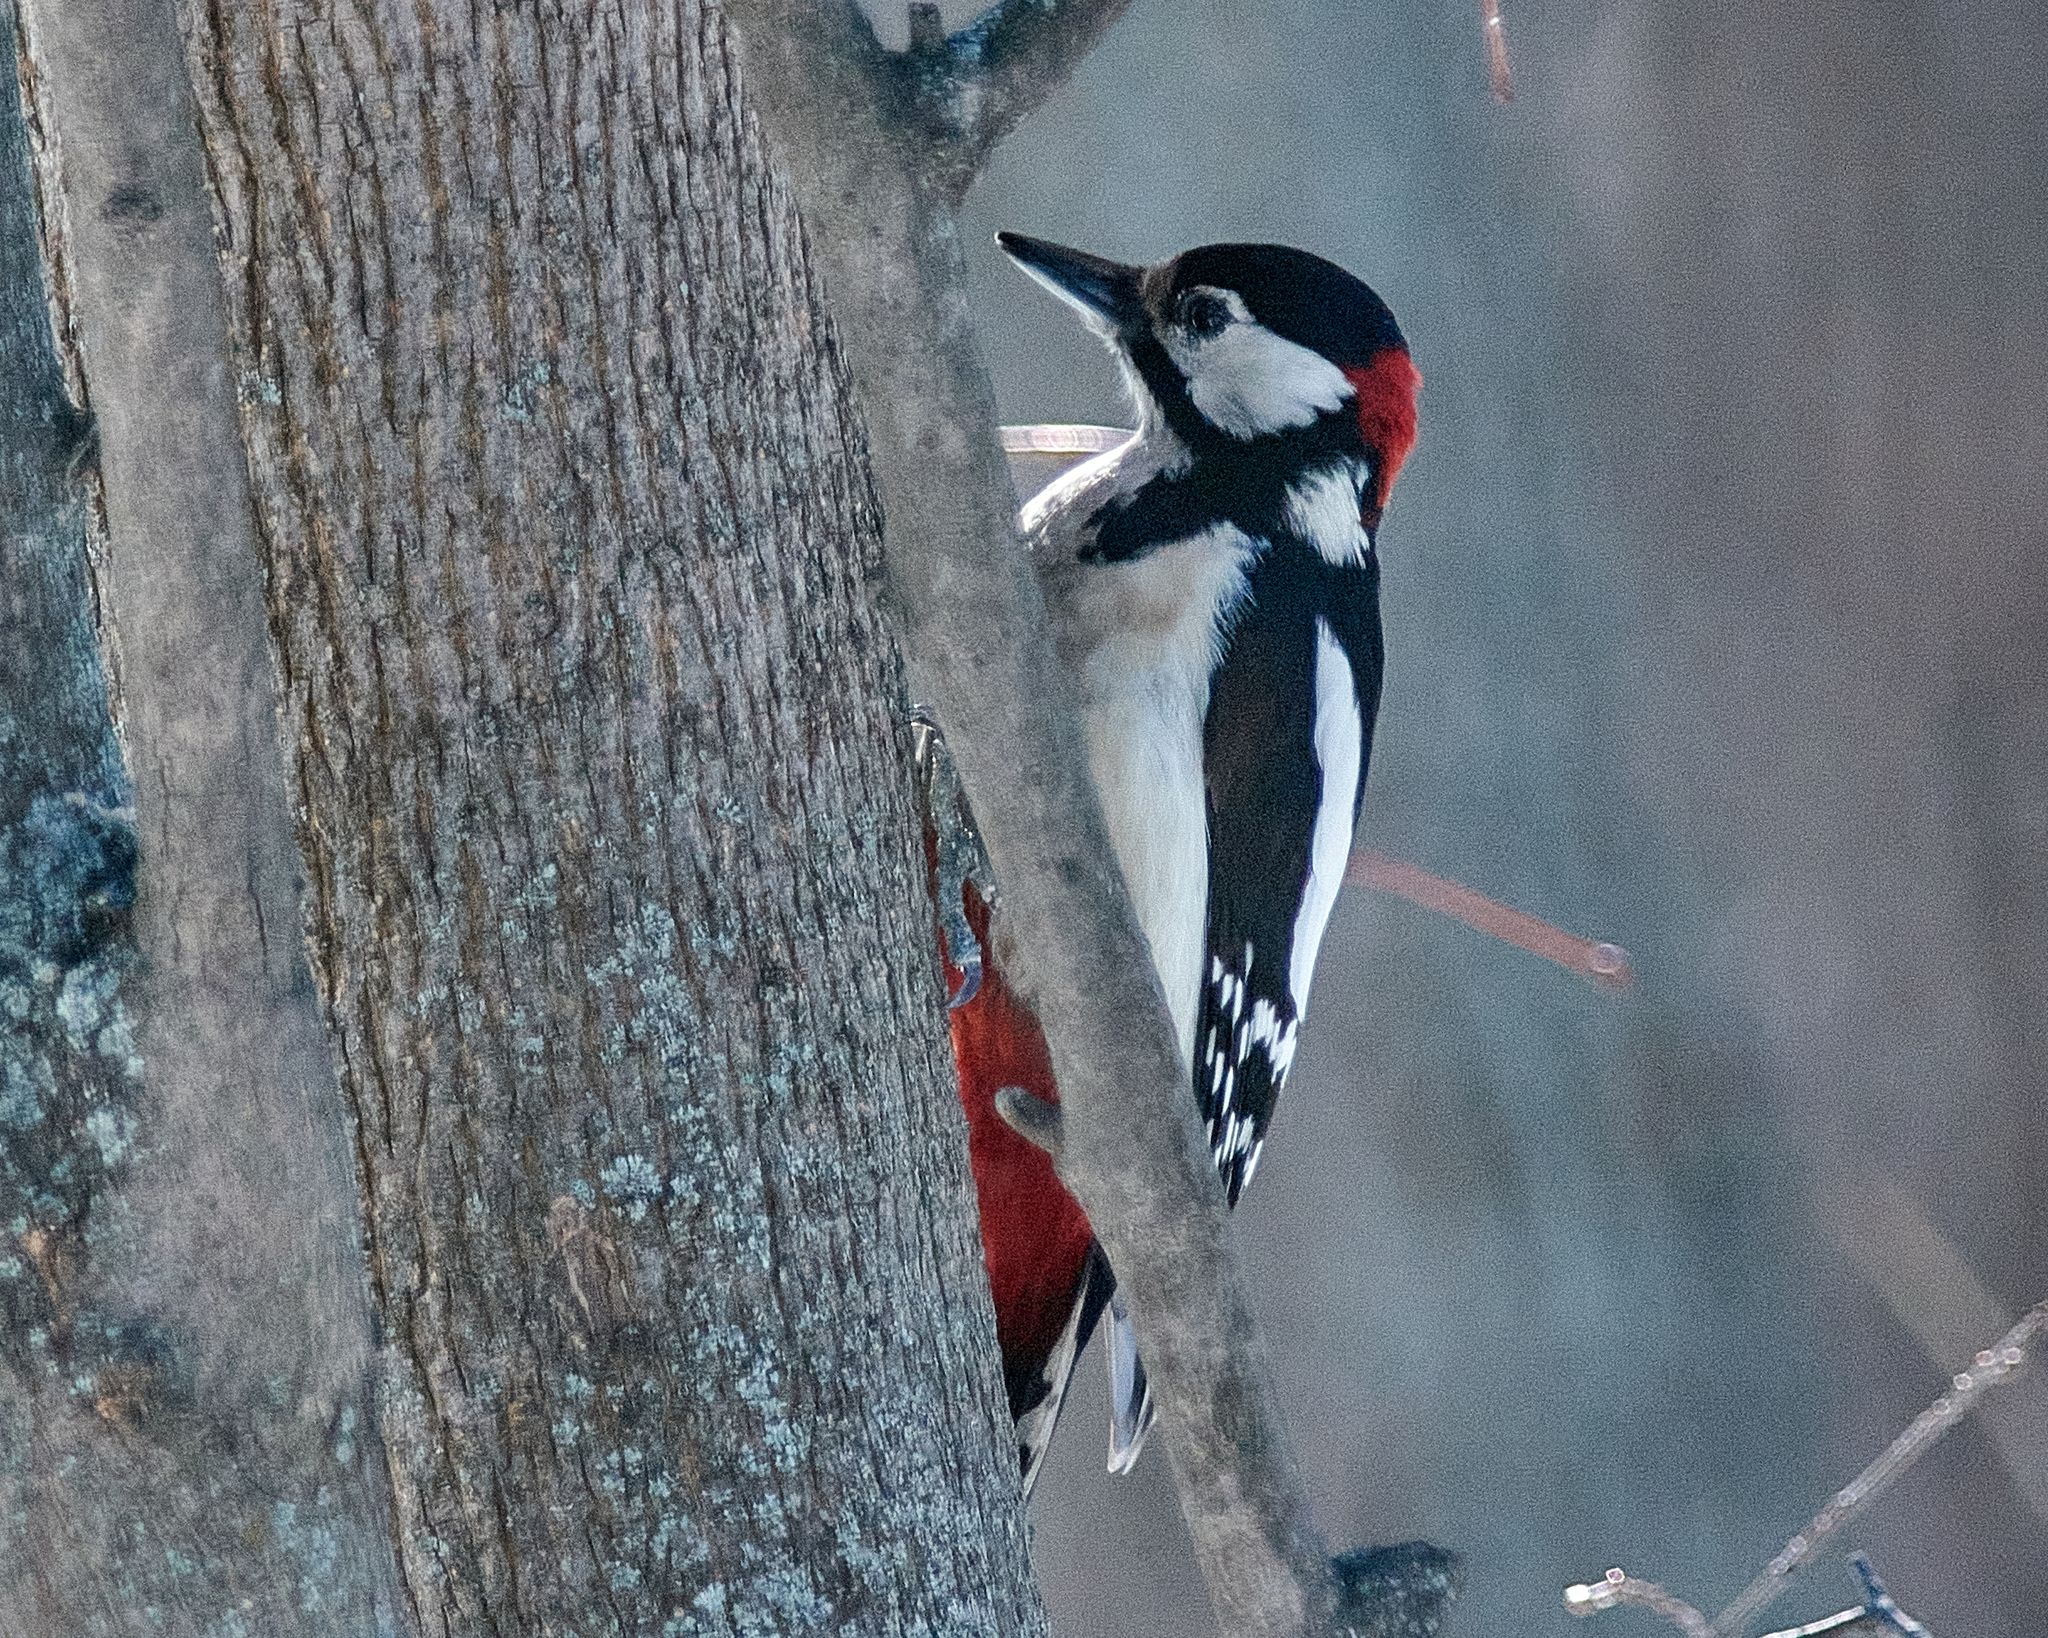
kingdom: Animalia
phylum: Chordata
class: Aves
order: Piciformes
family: Picidae
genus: Dendrocopos
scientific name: Dendrocopos major
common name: Great spotted woodpecker
